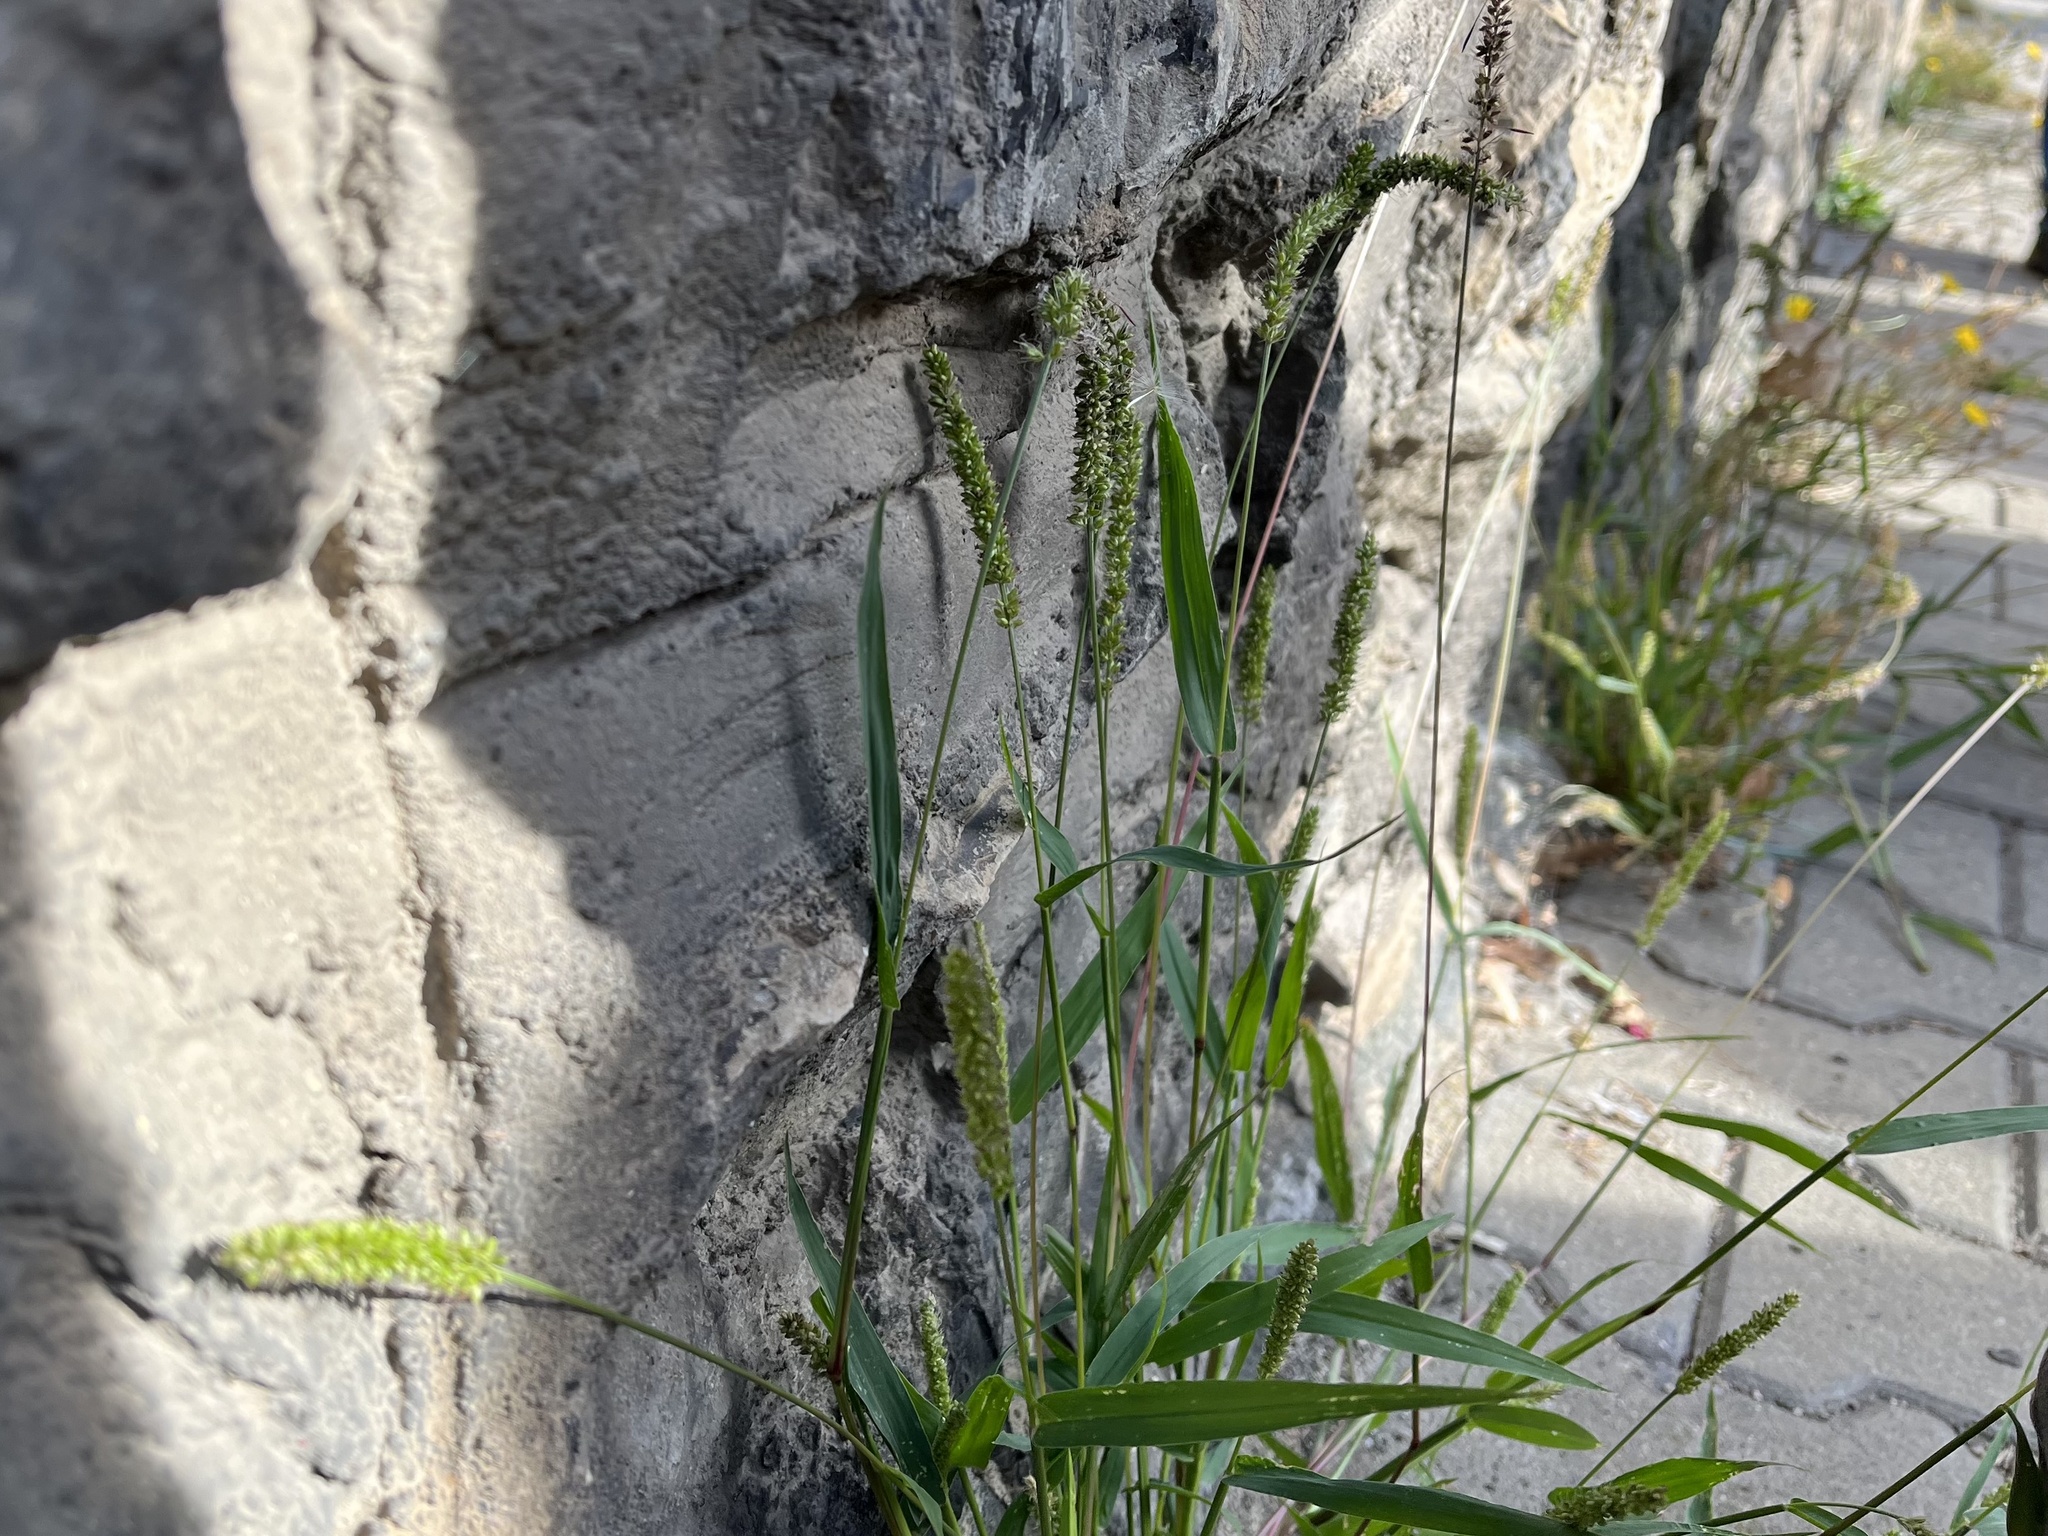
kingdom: Plantae
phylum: Tracheophyta
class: Liliopsida
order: Poales
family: Poaceae
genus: Setaria
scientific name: Setaria verticillata
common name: Hooked bristlegrass
